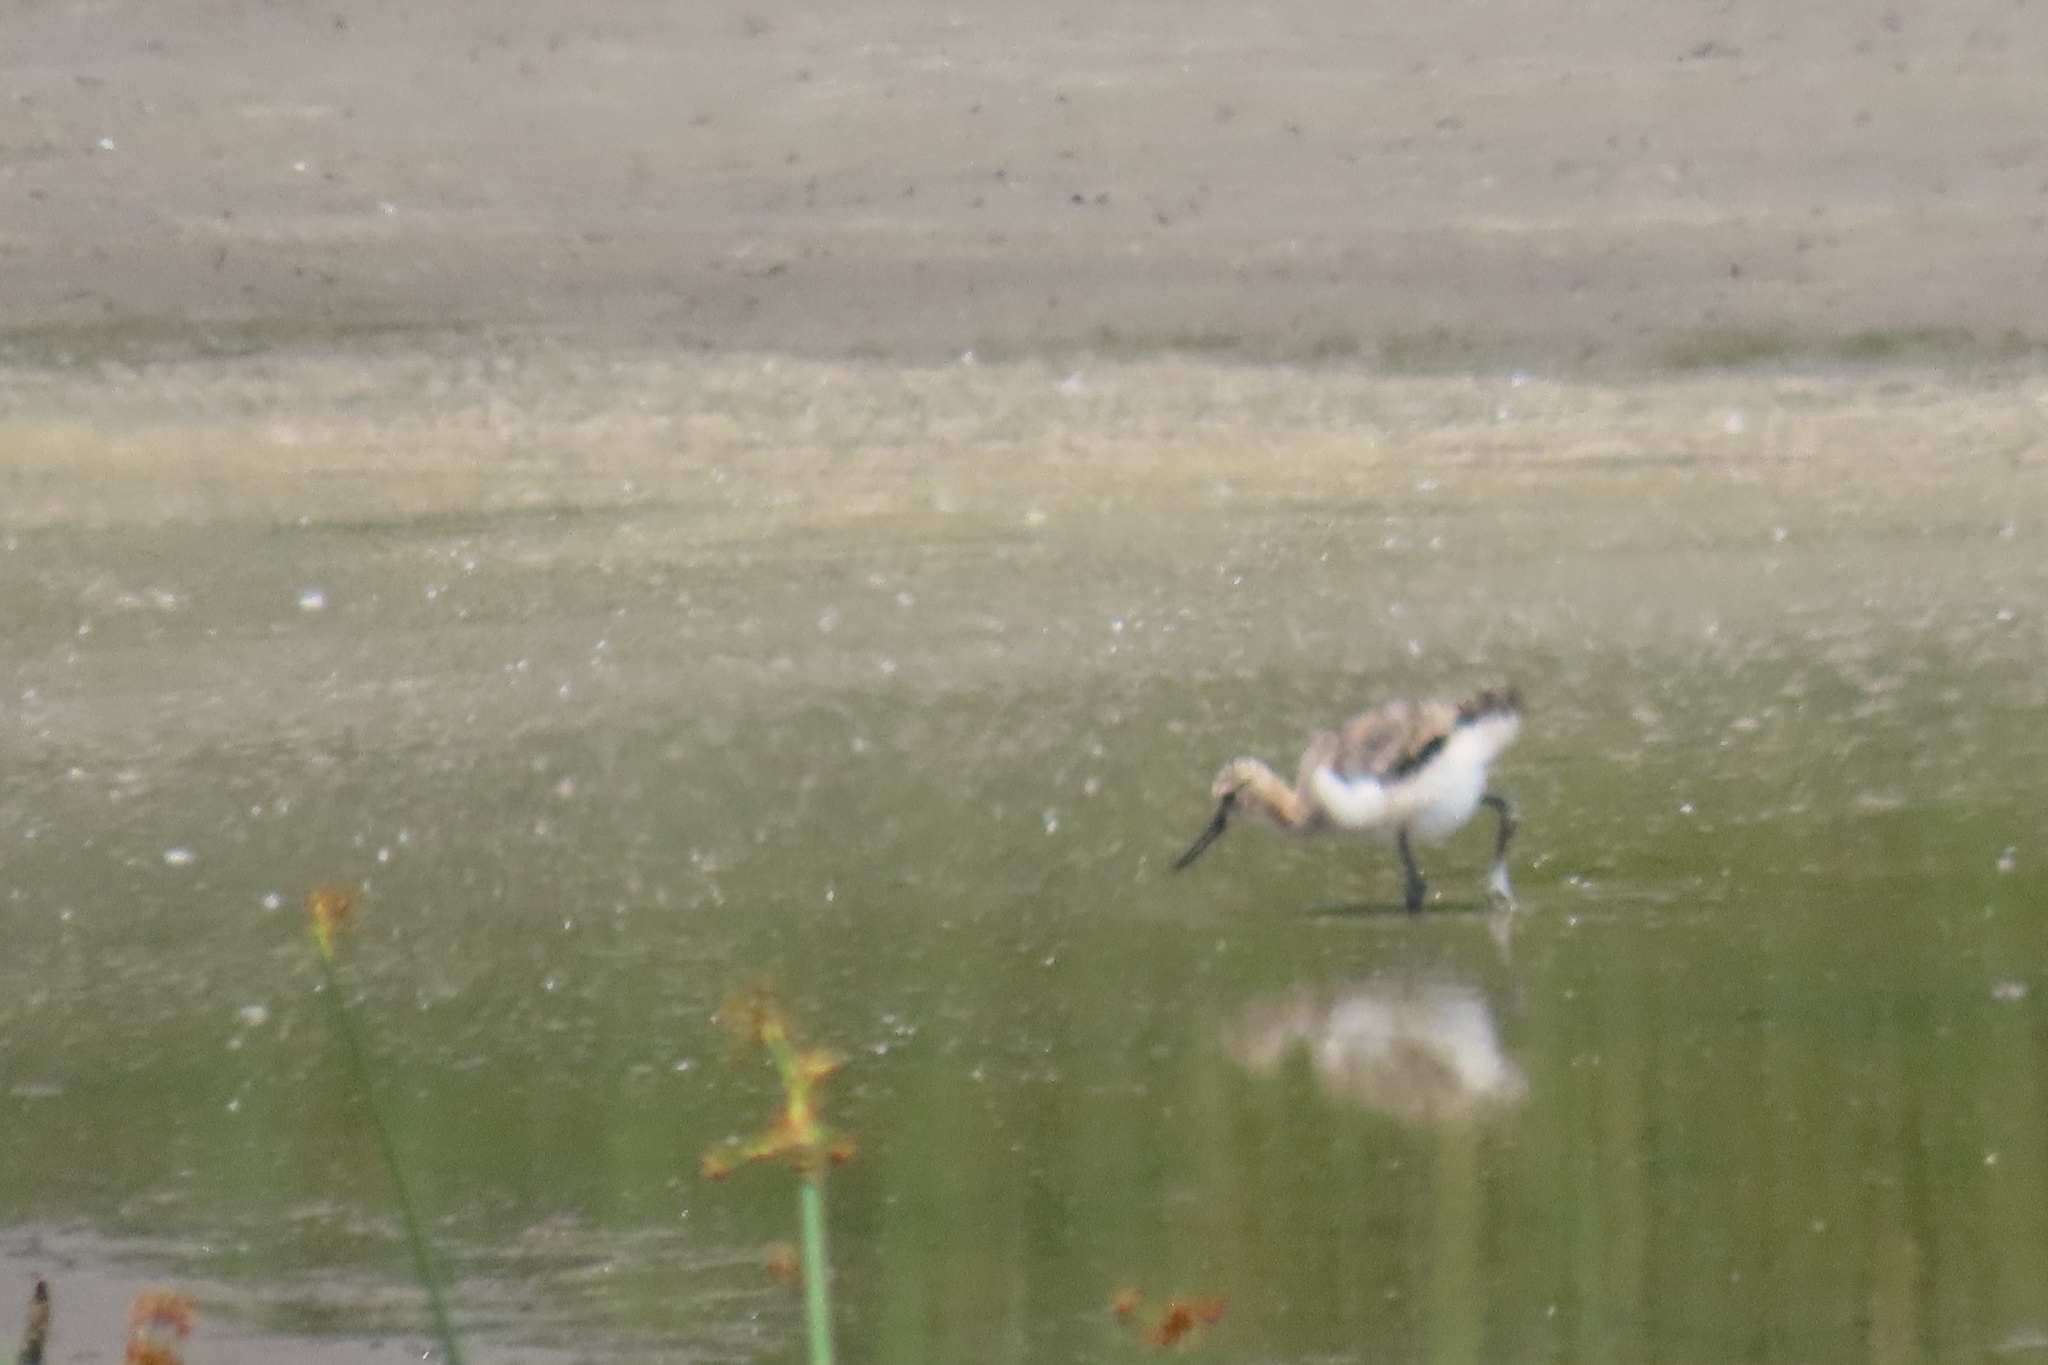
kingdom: Animalia
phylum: Chordata
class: Aves
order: Charadriiformes
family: Recurvirostridae
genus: Himantopus
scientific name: Himantopus mexicanus
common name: Black-necked stilt
